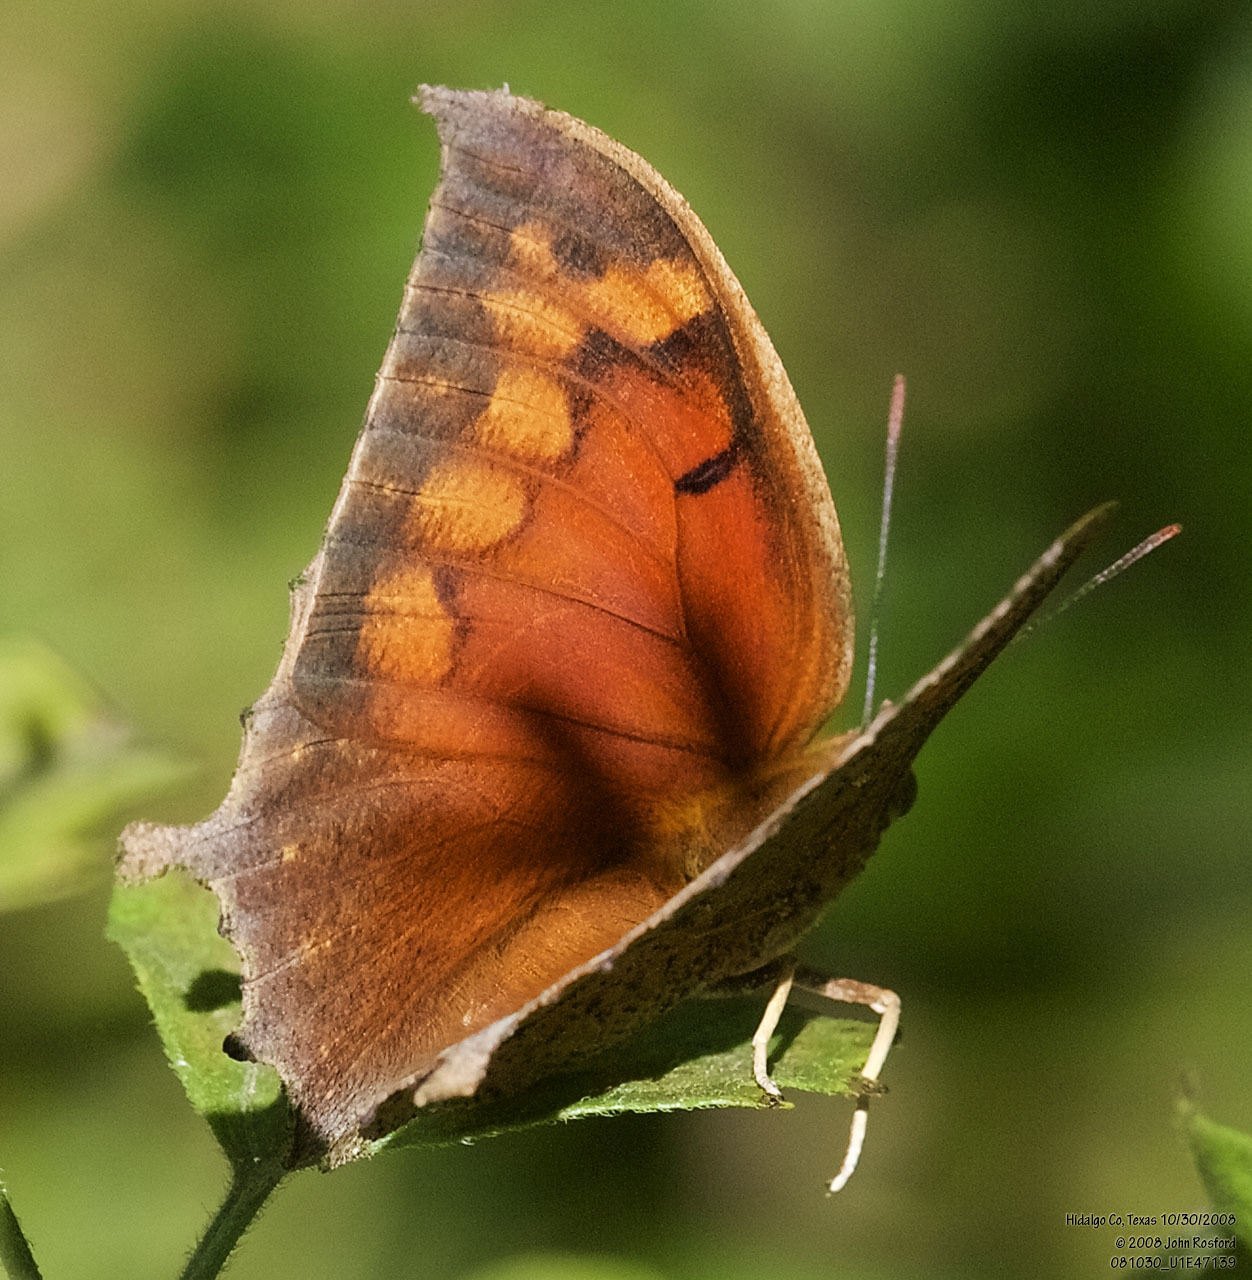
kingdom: Animalia
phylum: Arthropoda
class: Insecta
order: Lepidoptera
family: Nymphalidae
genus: Anaea
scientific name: Anaea aidea
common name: Tropical leafwing
